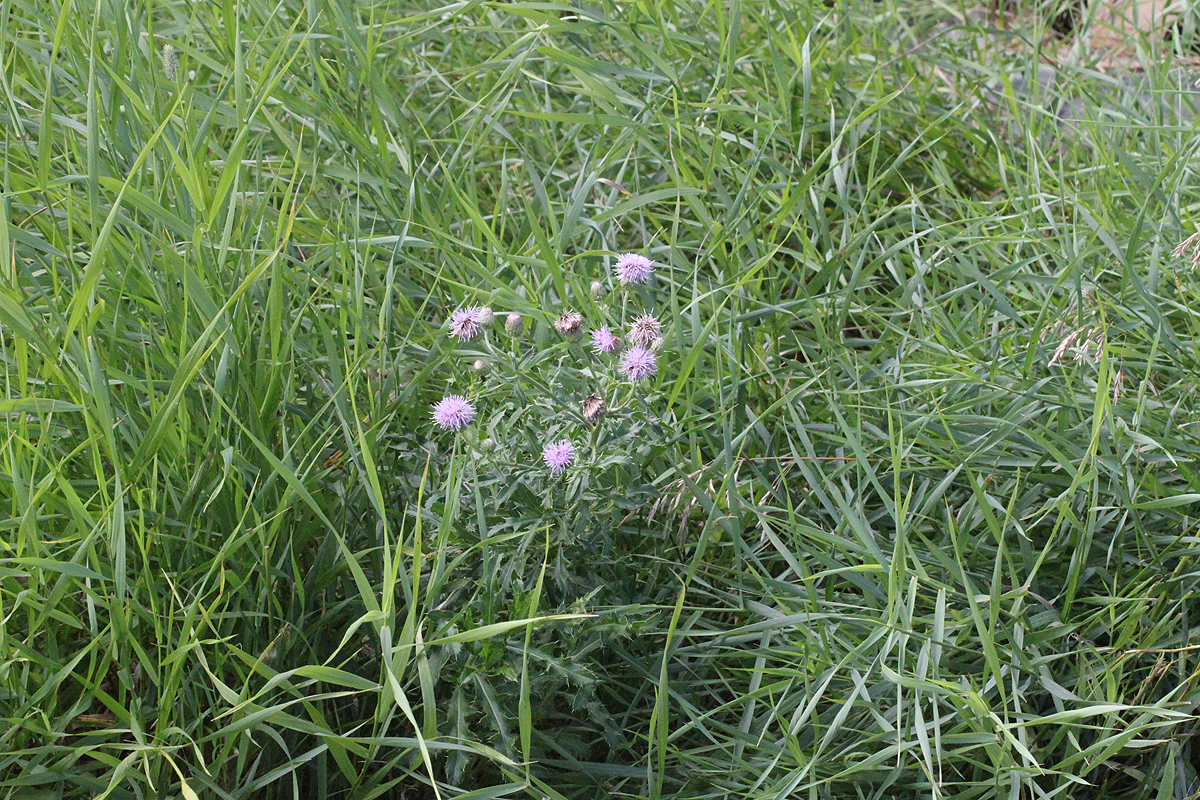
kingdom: Plantae
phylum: Tracheophyta
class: Magnoliopsida
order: Asterales
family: Asteraceae
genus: Cirsium
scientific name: Cirsium arvense
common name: Creeping thistle
